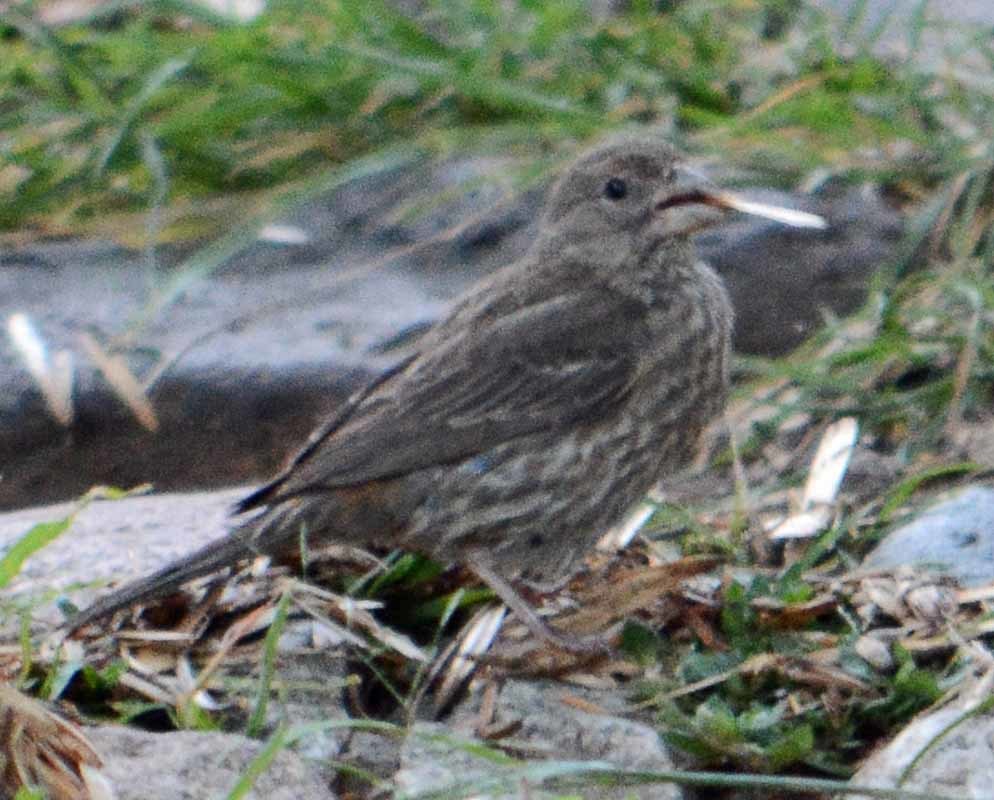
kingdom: Animalia
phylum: Chordata
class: Aves
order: Passeriformes
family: Fringillidae
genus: Haemorhous
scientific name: Haemorhous mexicanus
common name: House finch
